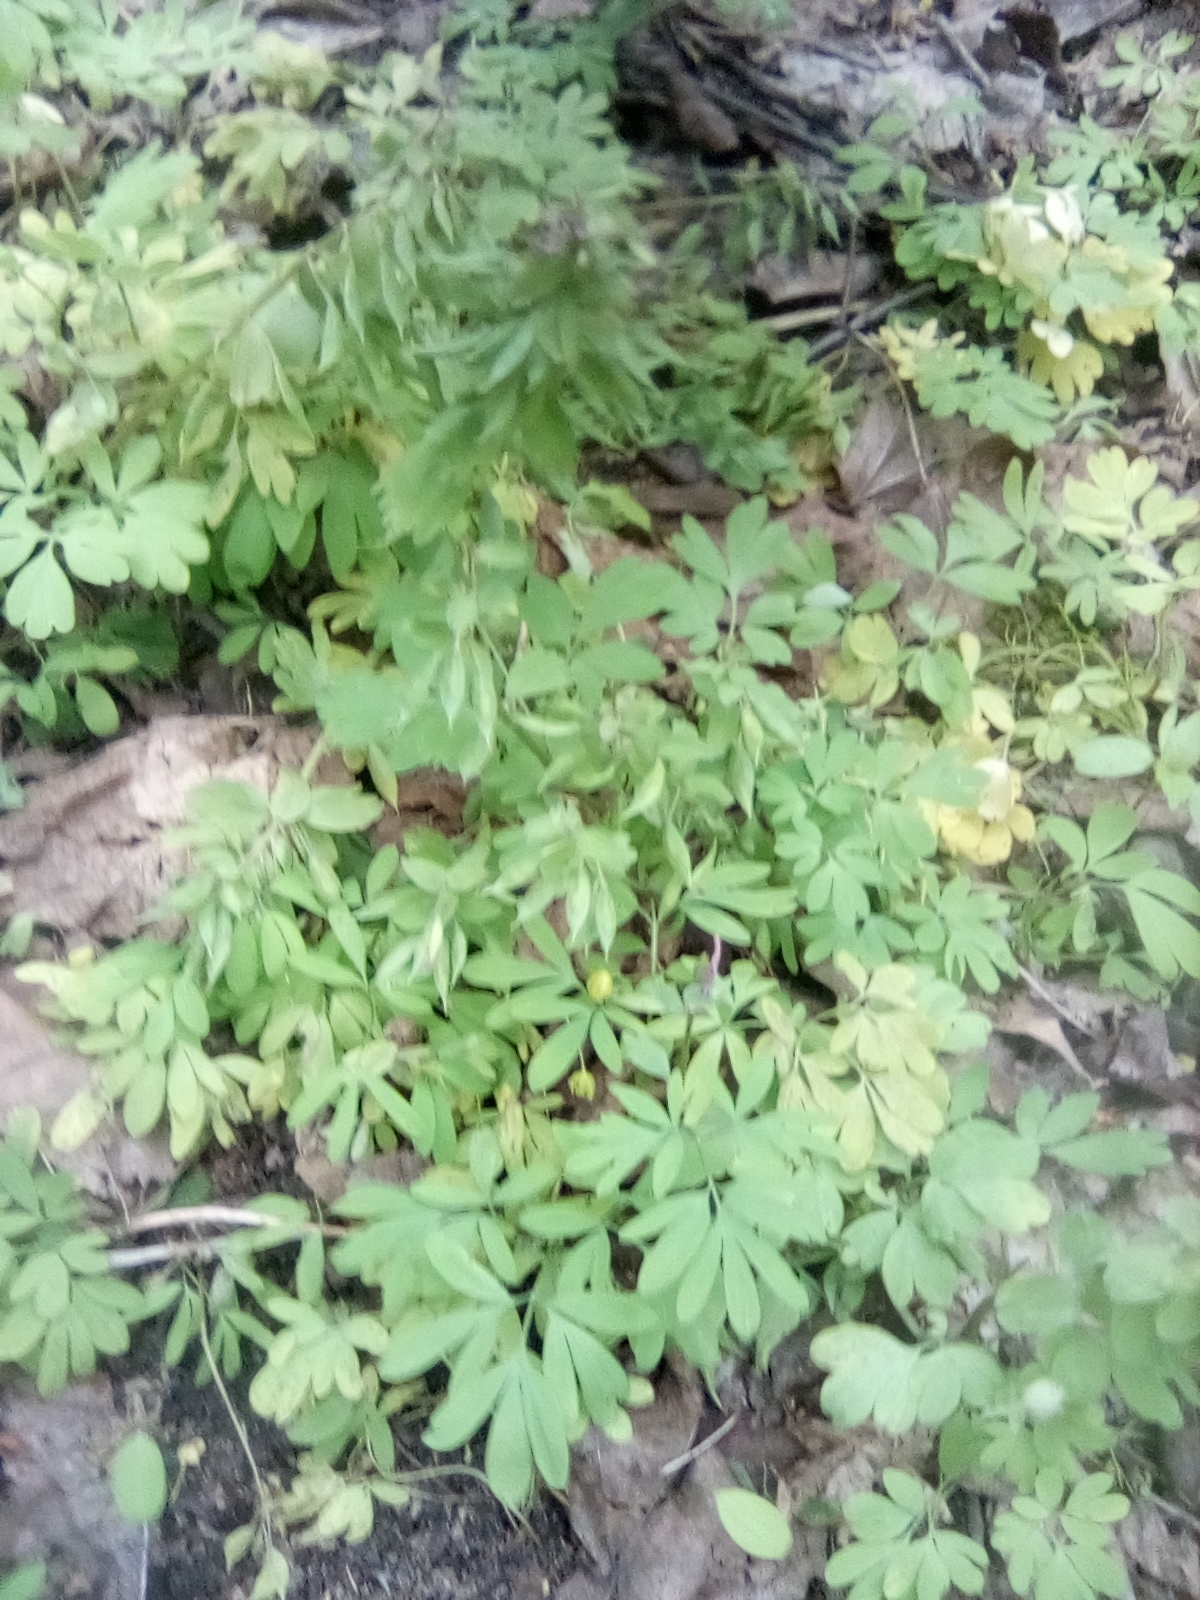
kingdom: Plantae
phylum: Tracheophyta
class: Magnoliopsida
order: Ranunculales
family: Papaveraceae
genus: Corydalis
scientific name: Corydalis solida
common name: Bird-in-a-bush
